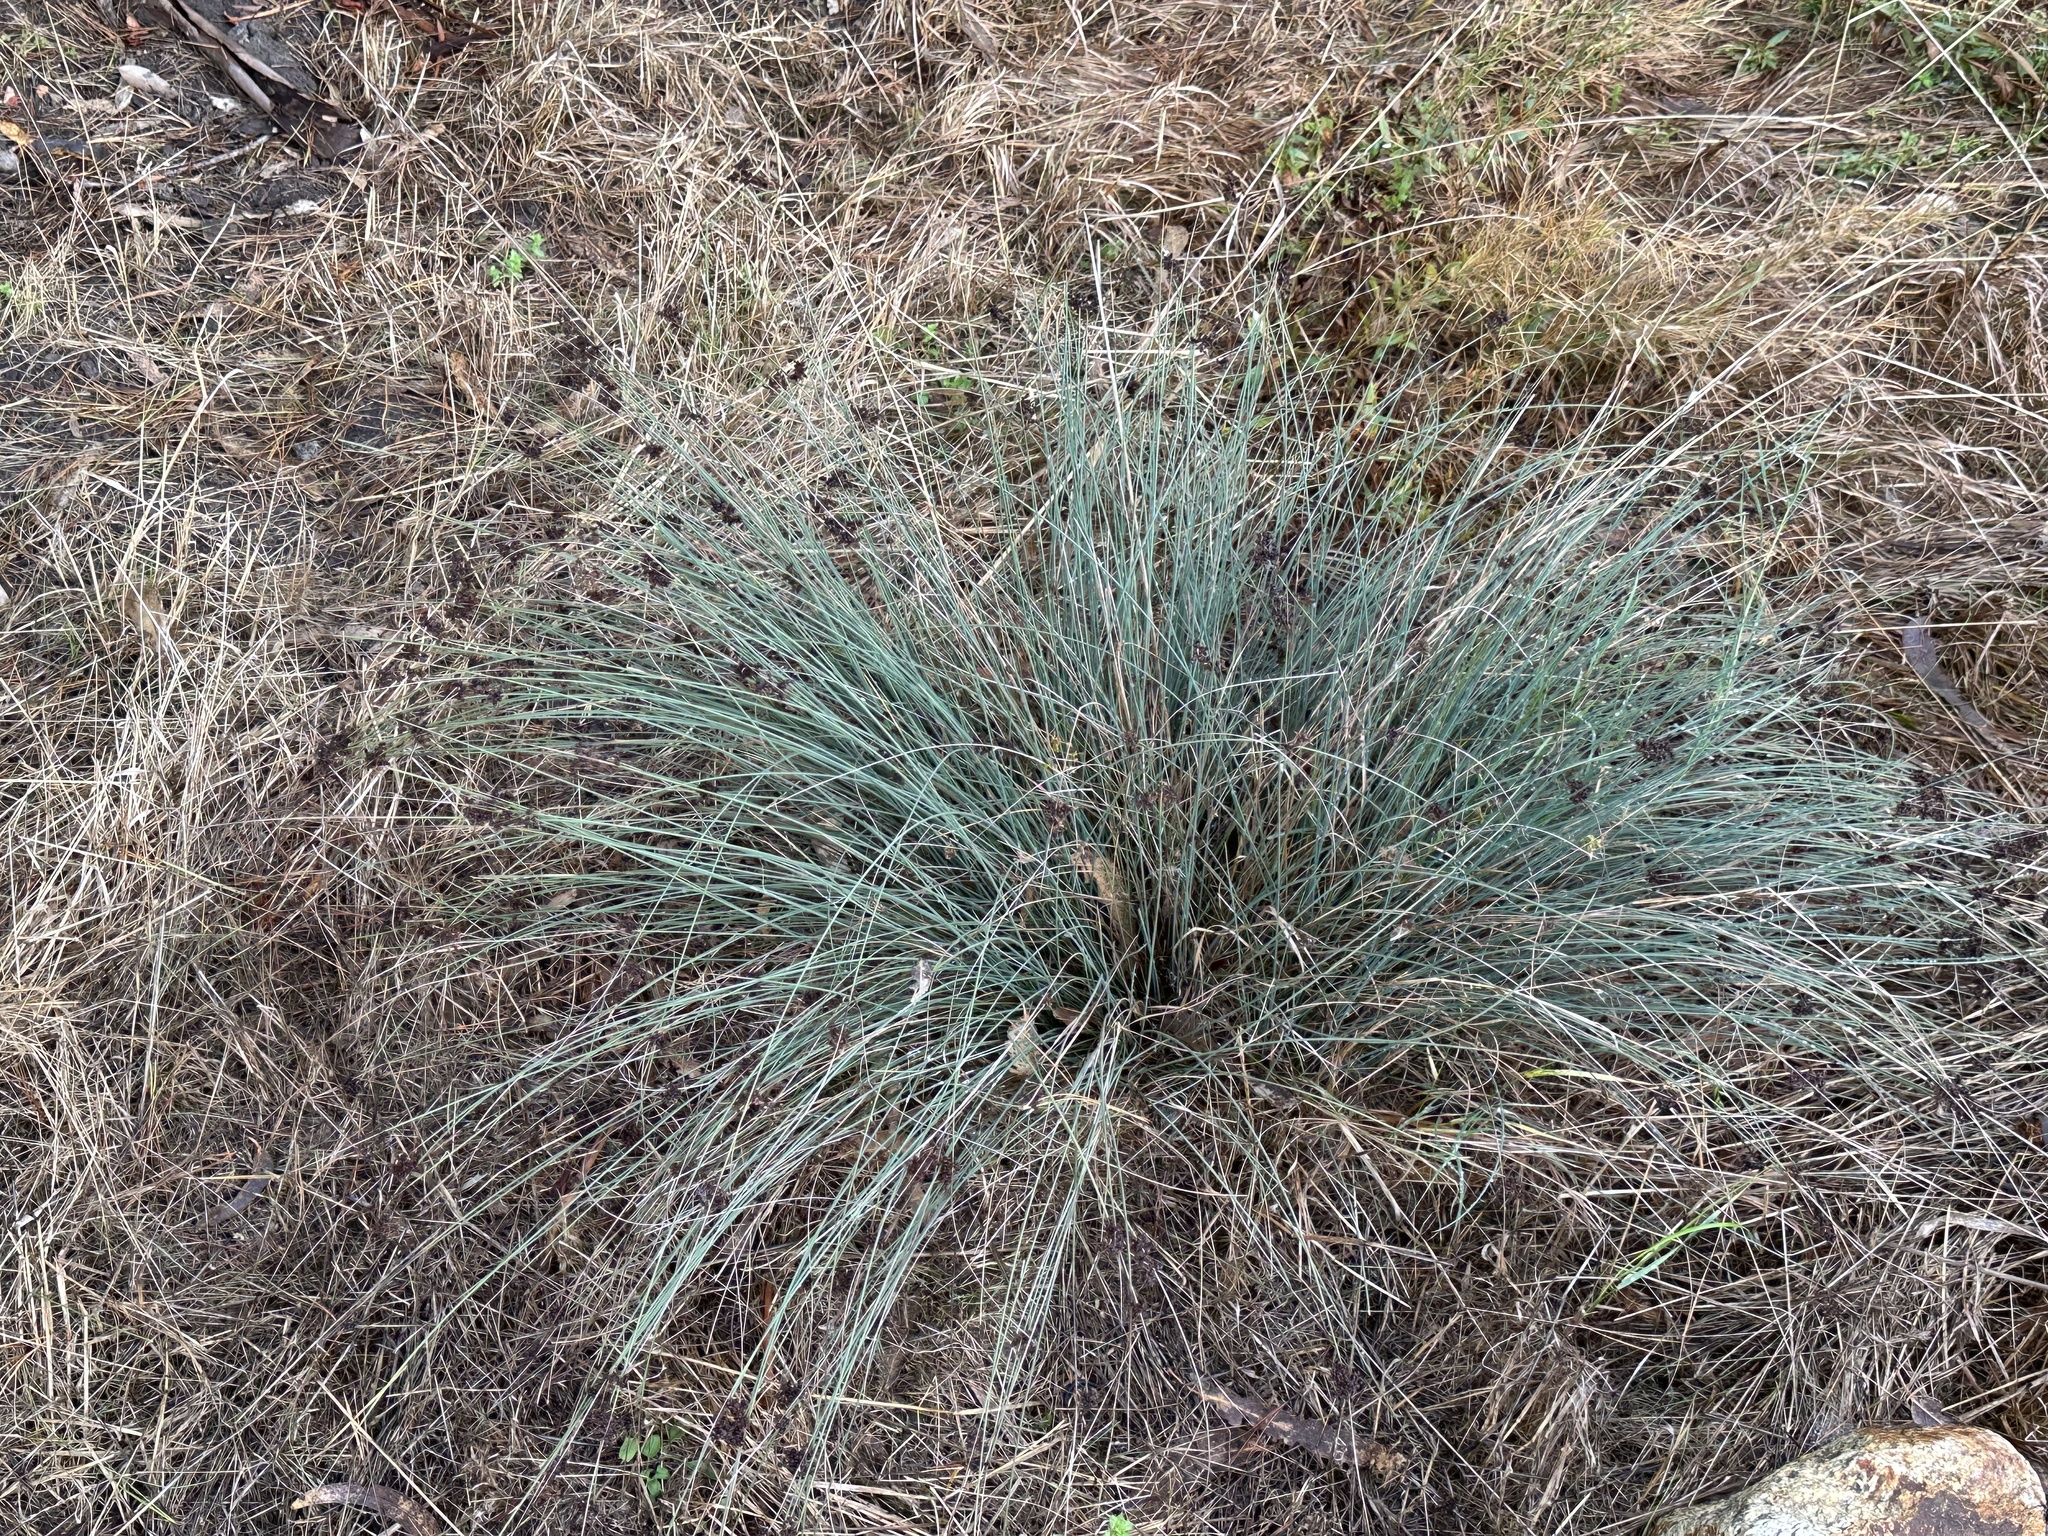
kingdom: Plantae
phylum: Tracheophyta
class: Liliopsida
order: Poales
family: Juncaceae
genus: Juncus
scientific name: Juncus patens
